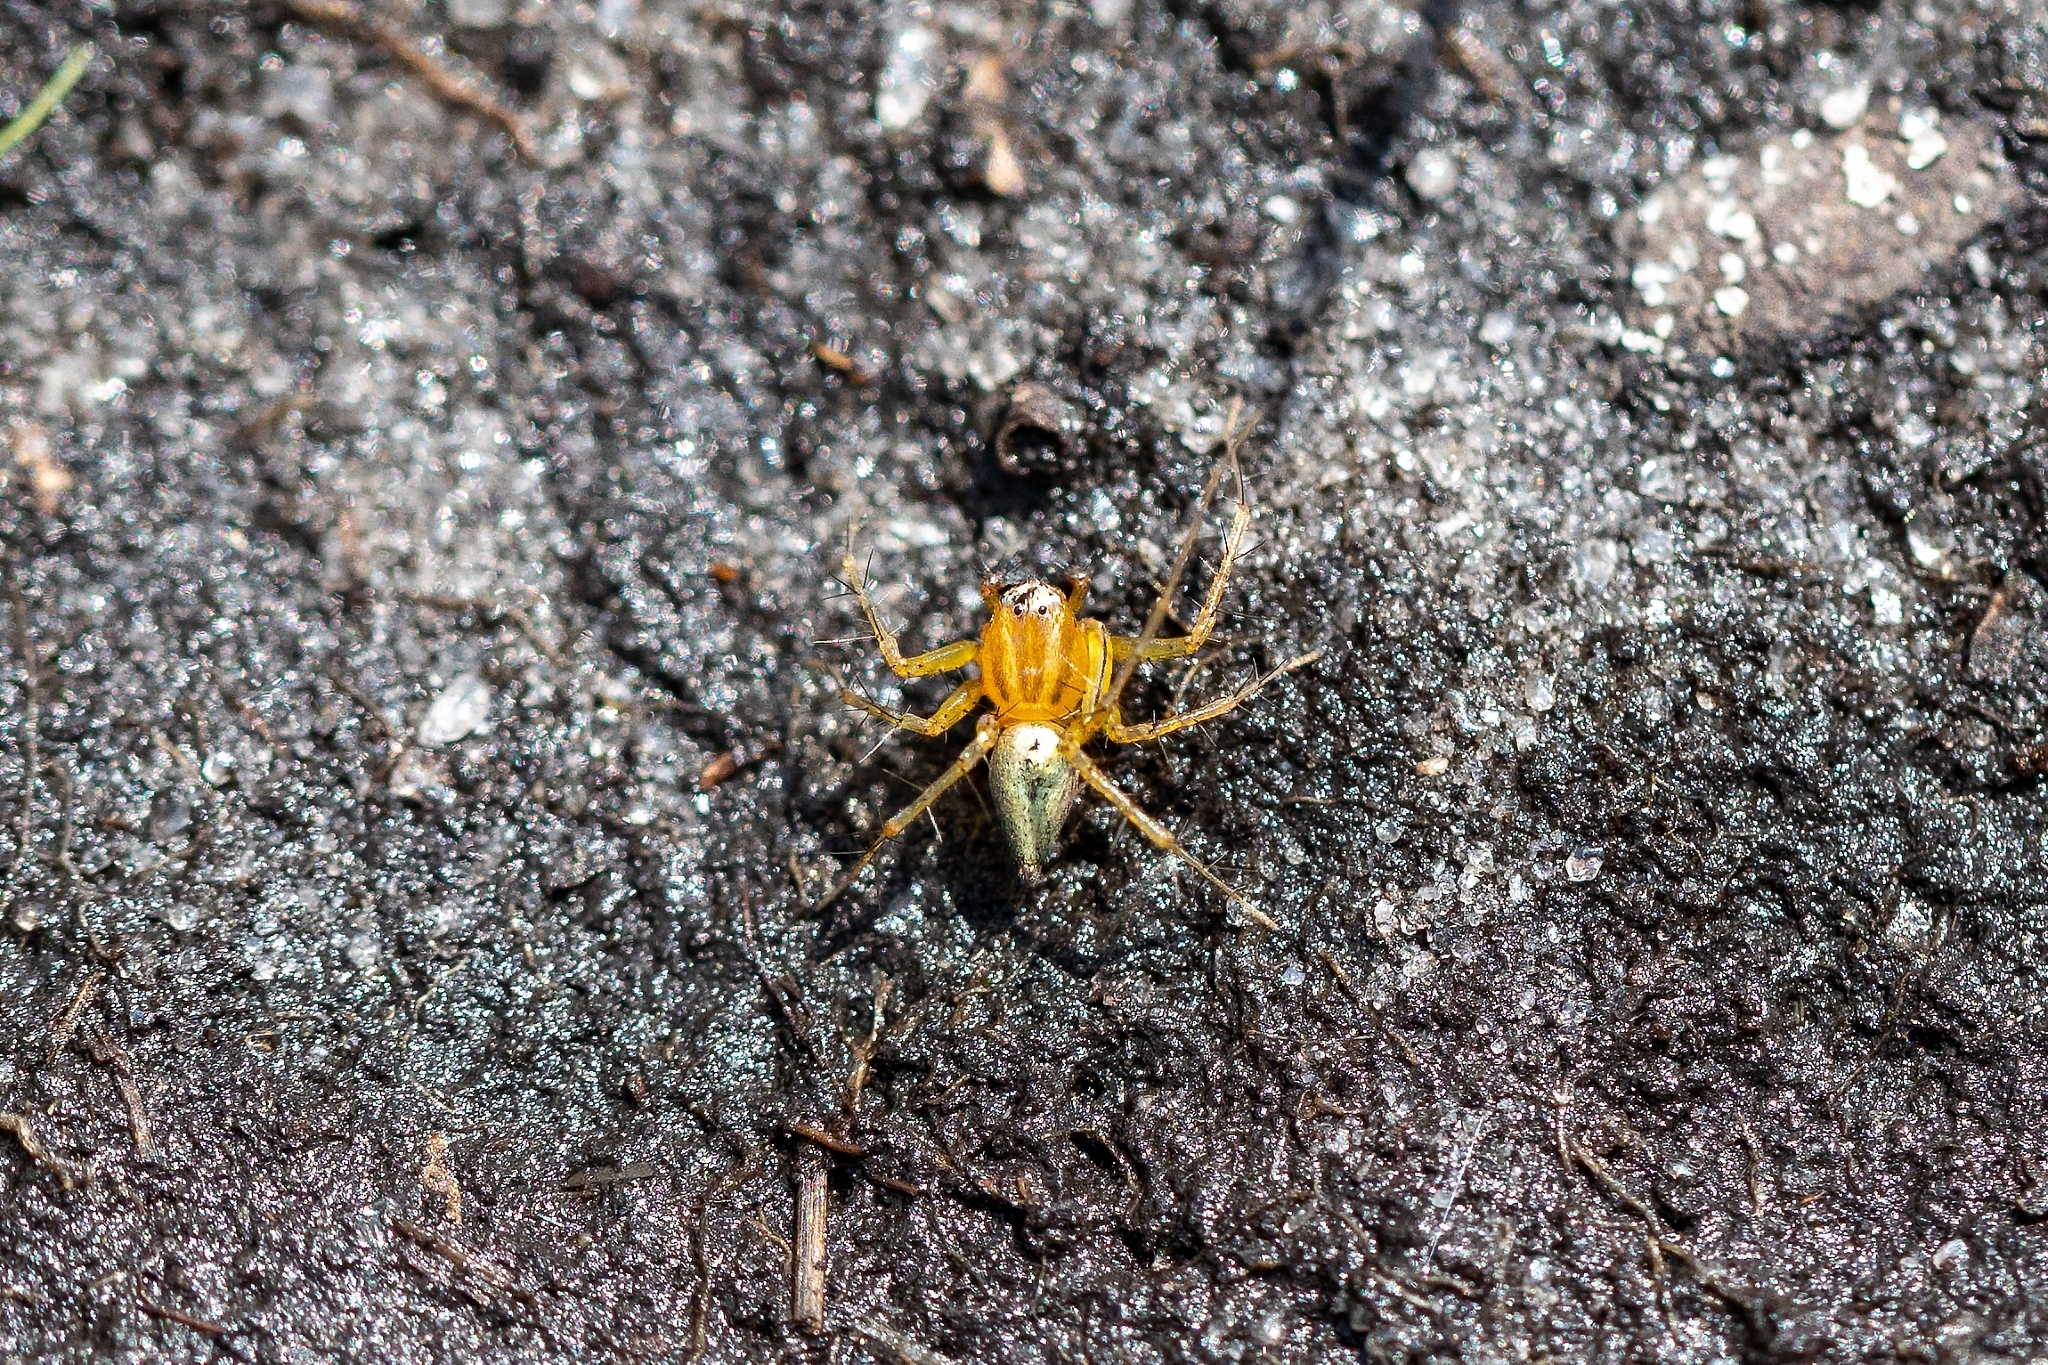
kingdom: Animalia
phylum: Arthropoda
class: Arachnida
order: Araneae
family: Oxyopidae
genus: Oxyopes
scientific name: Oxyopes salticus
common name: Lynx spiders
